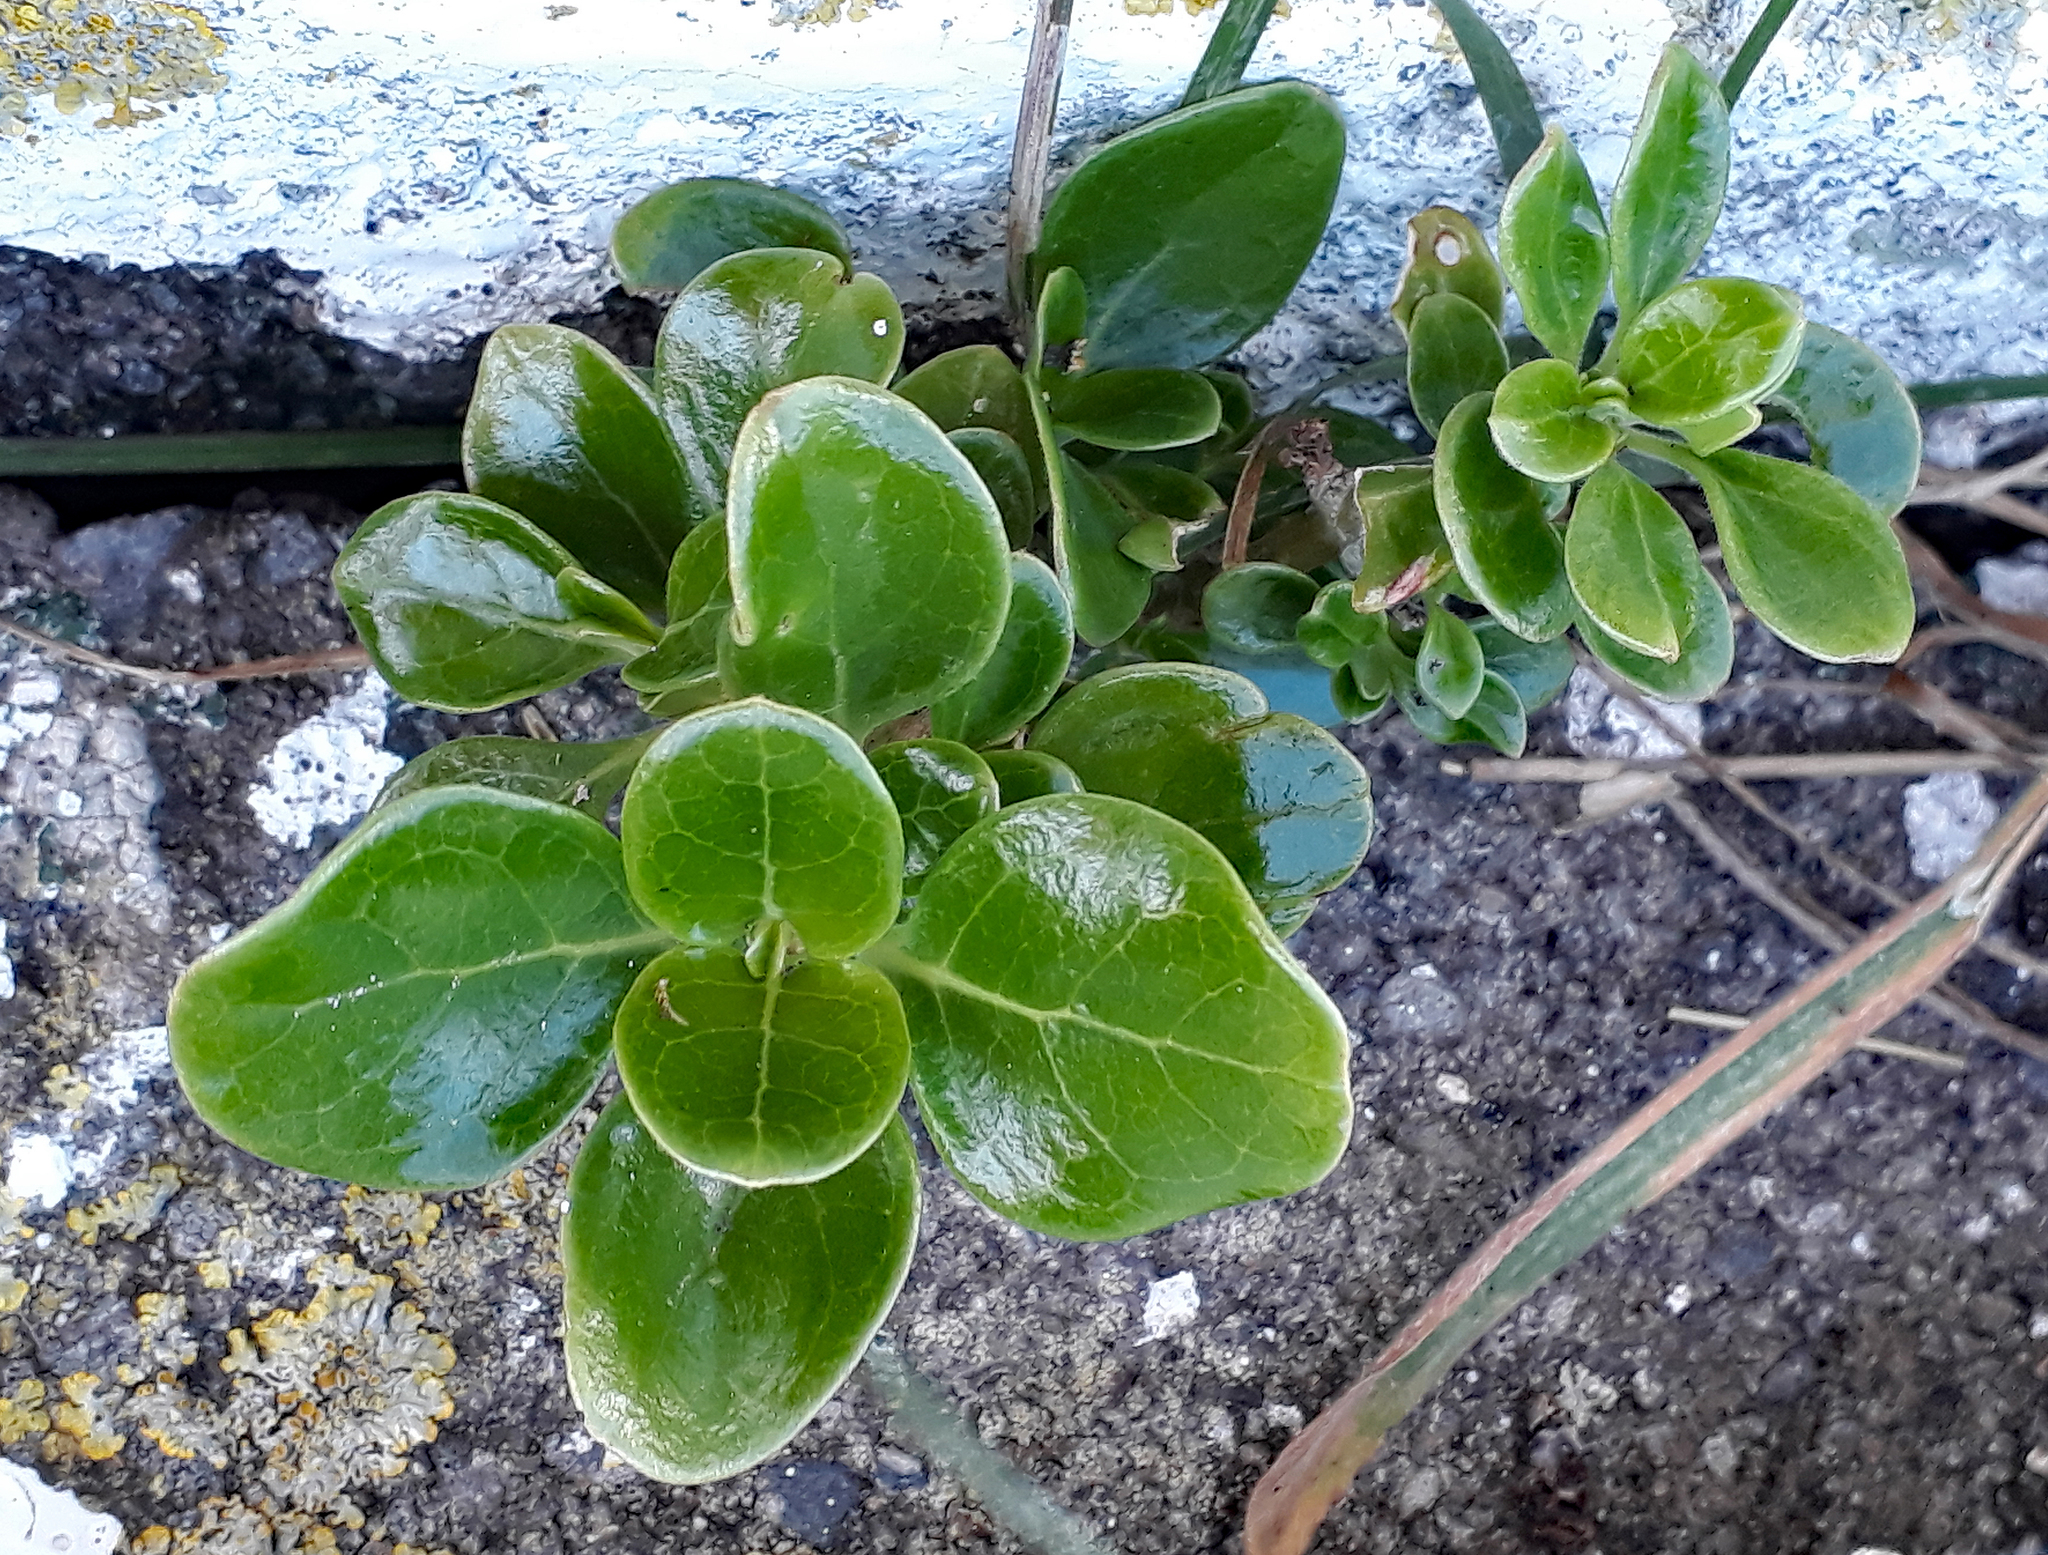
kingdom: Plantae
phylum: Tracheophyta
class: Magnoliopsida
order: Gentianales
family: Rubiaceae
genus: Coprosma
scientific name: Coprosma repens
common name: Tree bedstraw
